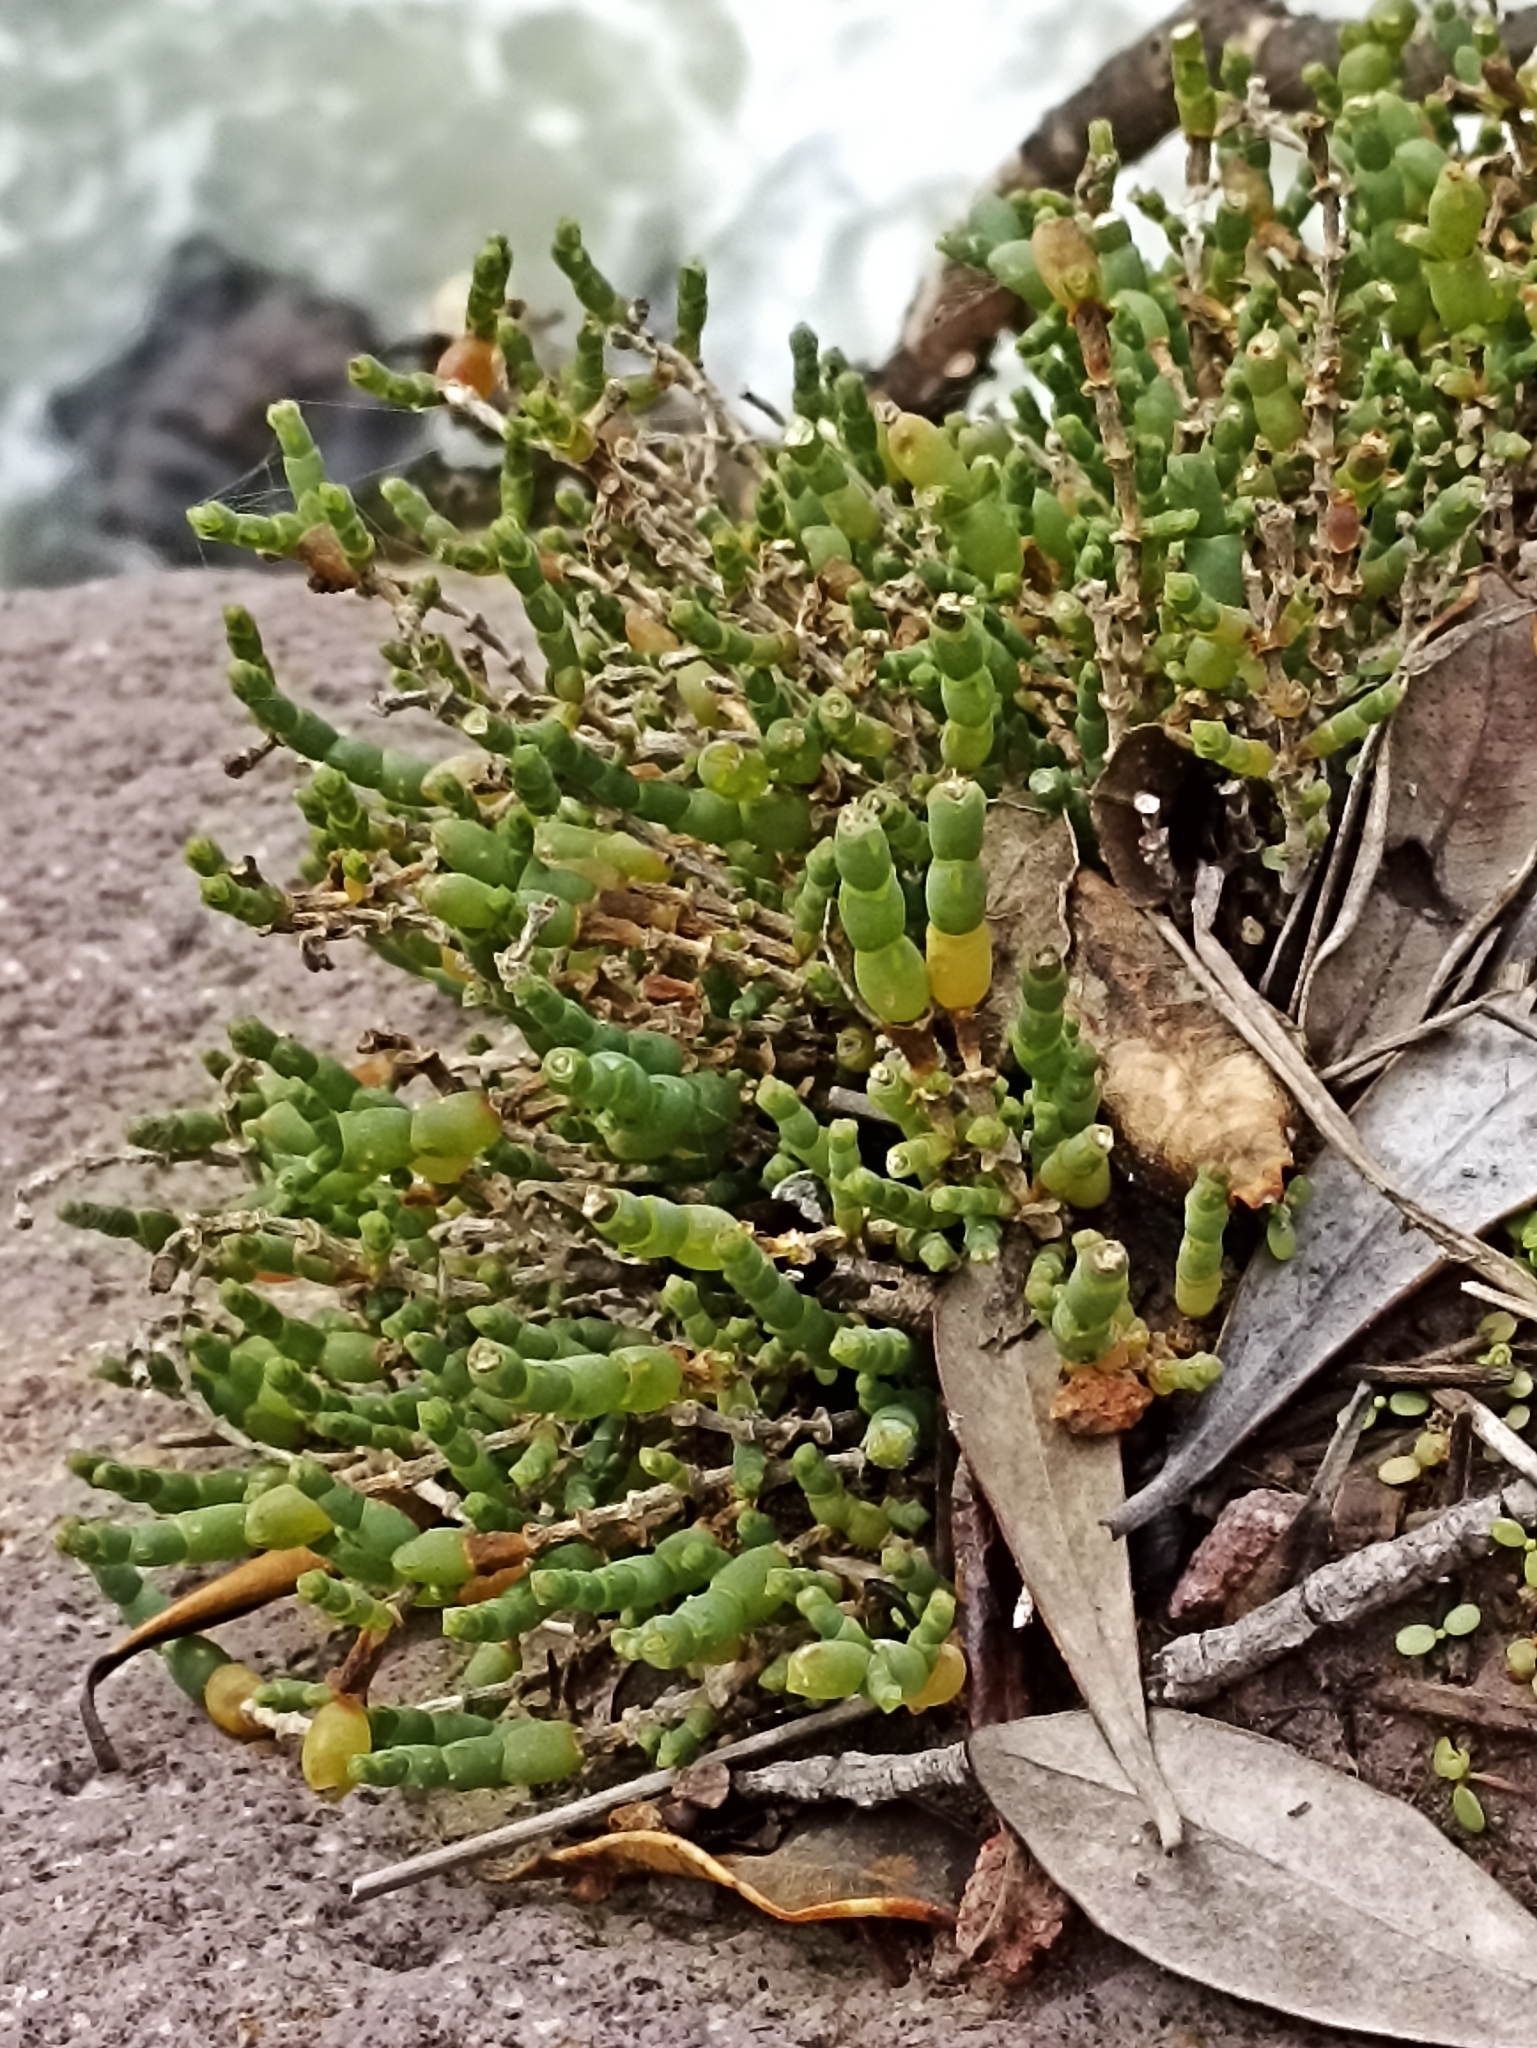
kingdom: Plantae
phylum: Tracheophyta
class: Magnoliopsida
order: Caryophyllales
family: Amaranthaceae
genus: Salicornia
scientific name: Salicornia quinqueflora
